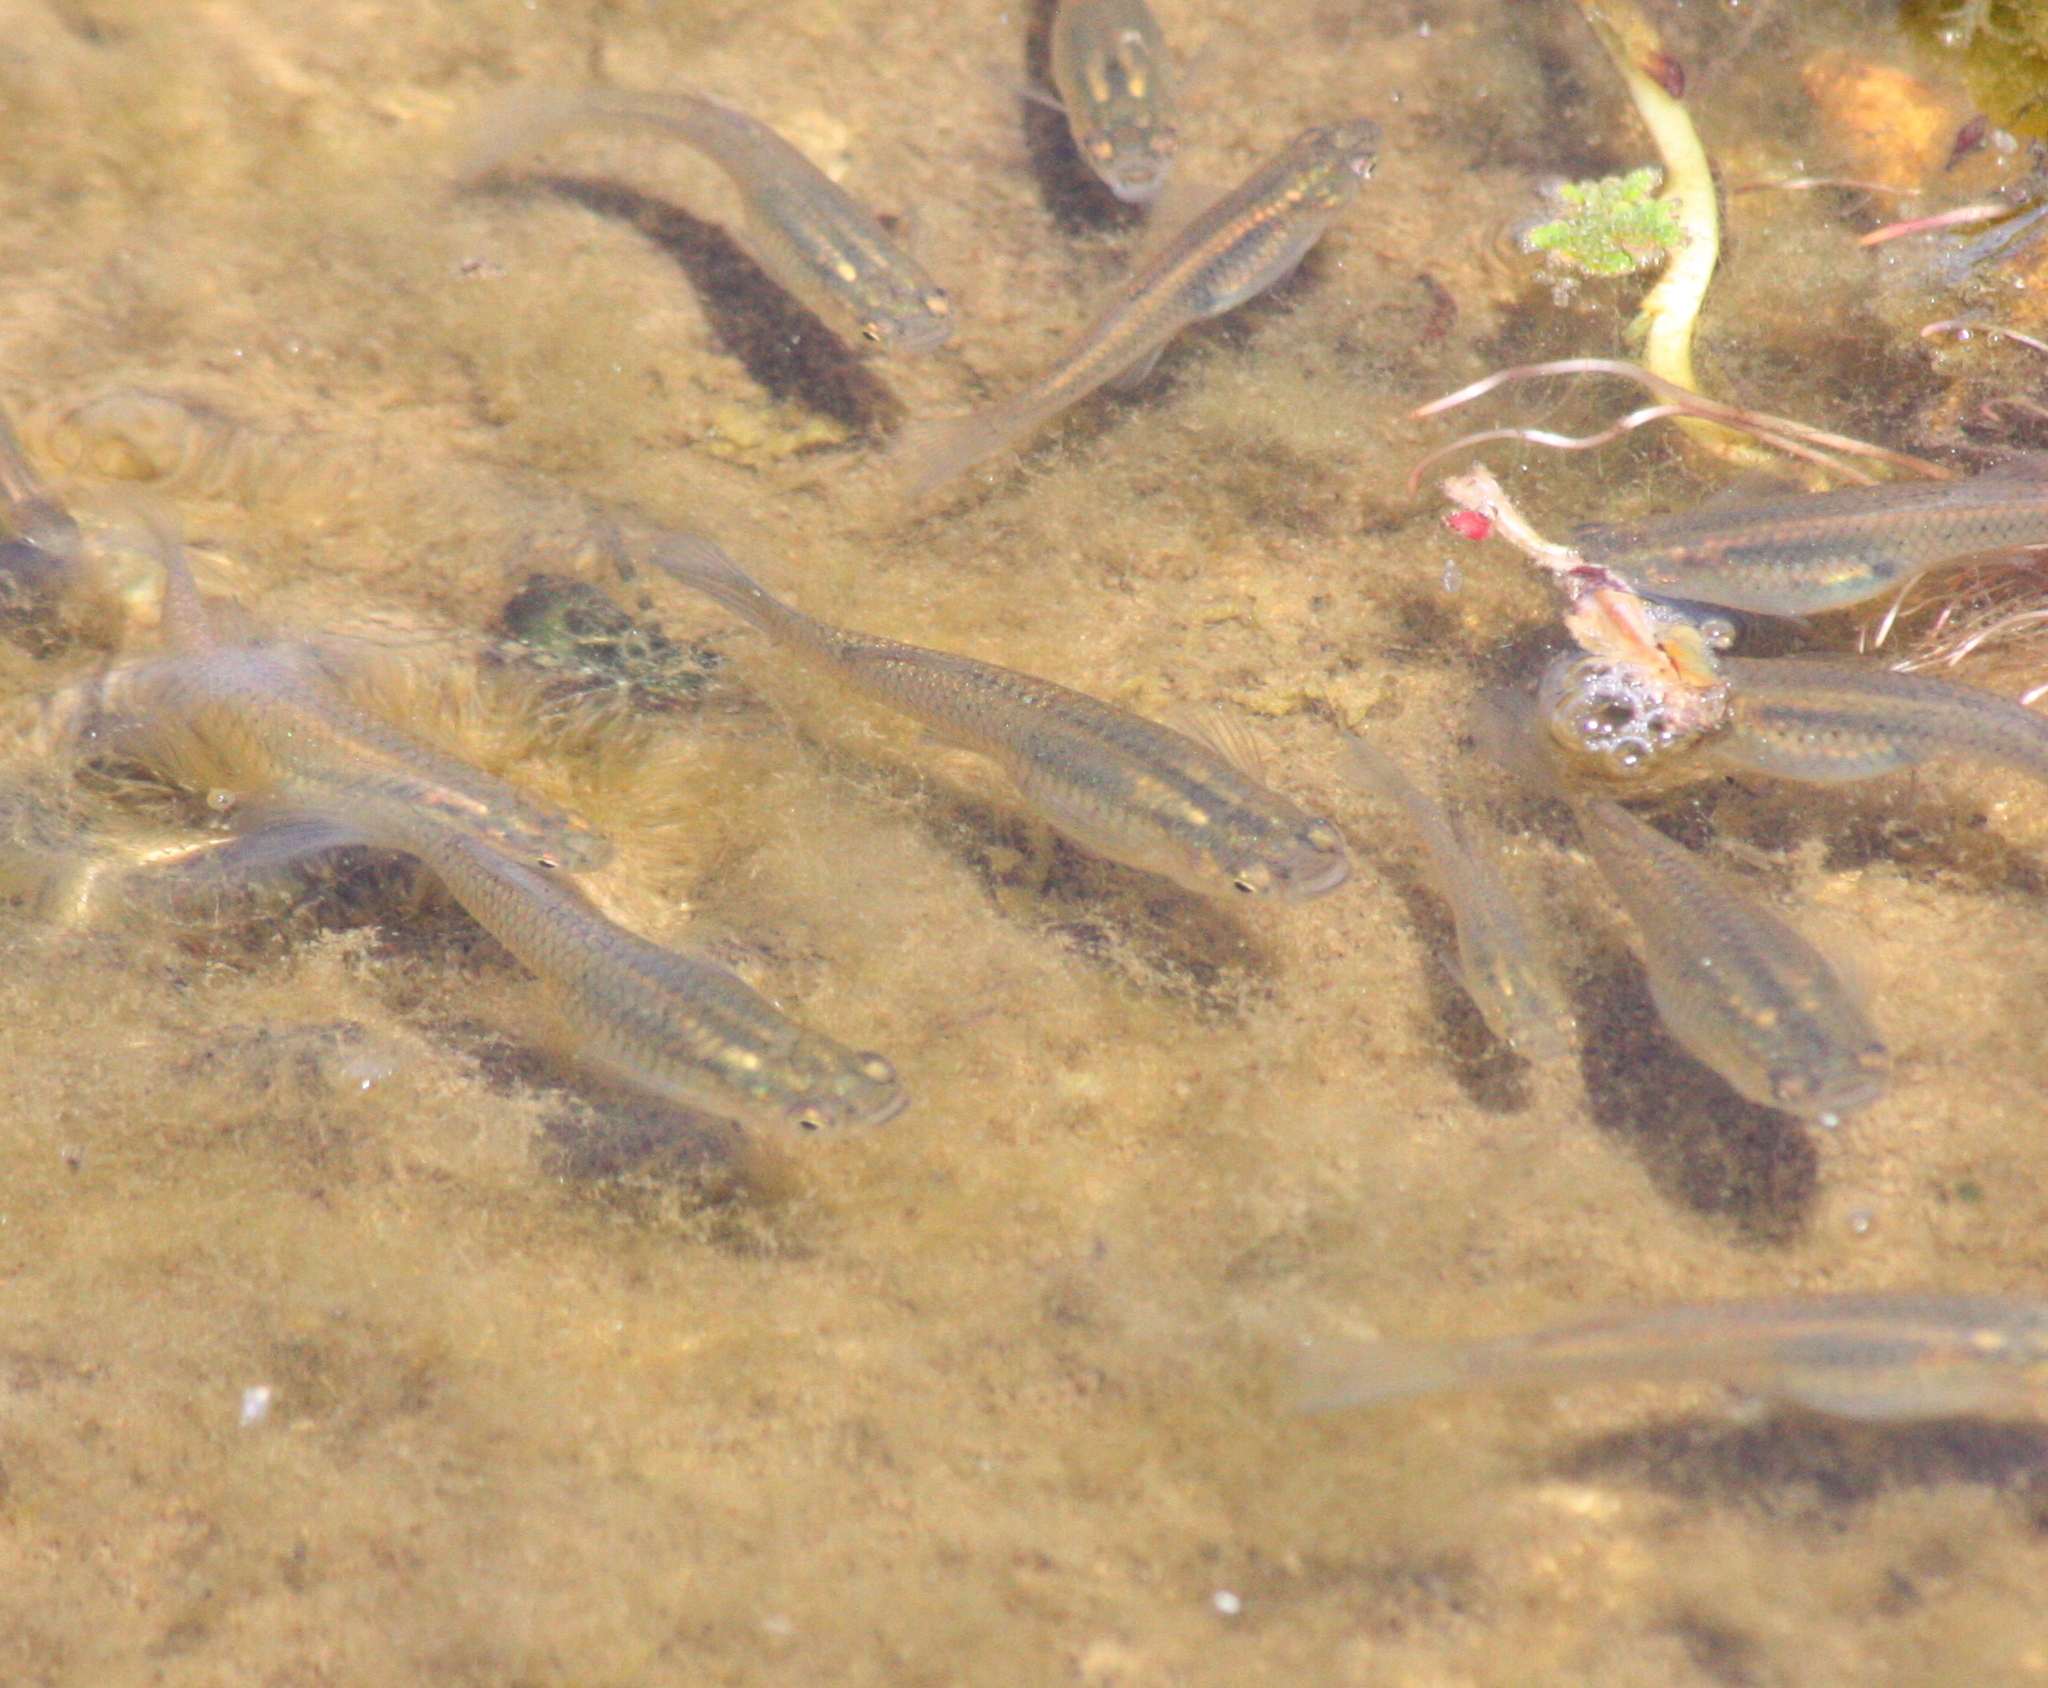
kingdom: Animalia
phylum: Chordata
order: Cyprinodontiformes
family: Poeciliidae
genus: Gambusia
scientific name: Gambusia affinis
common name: Mosquitofish
